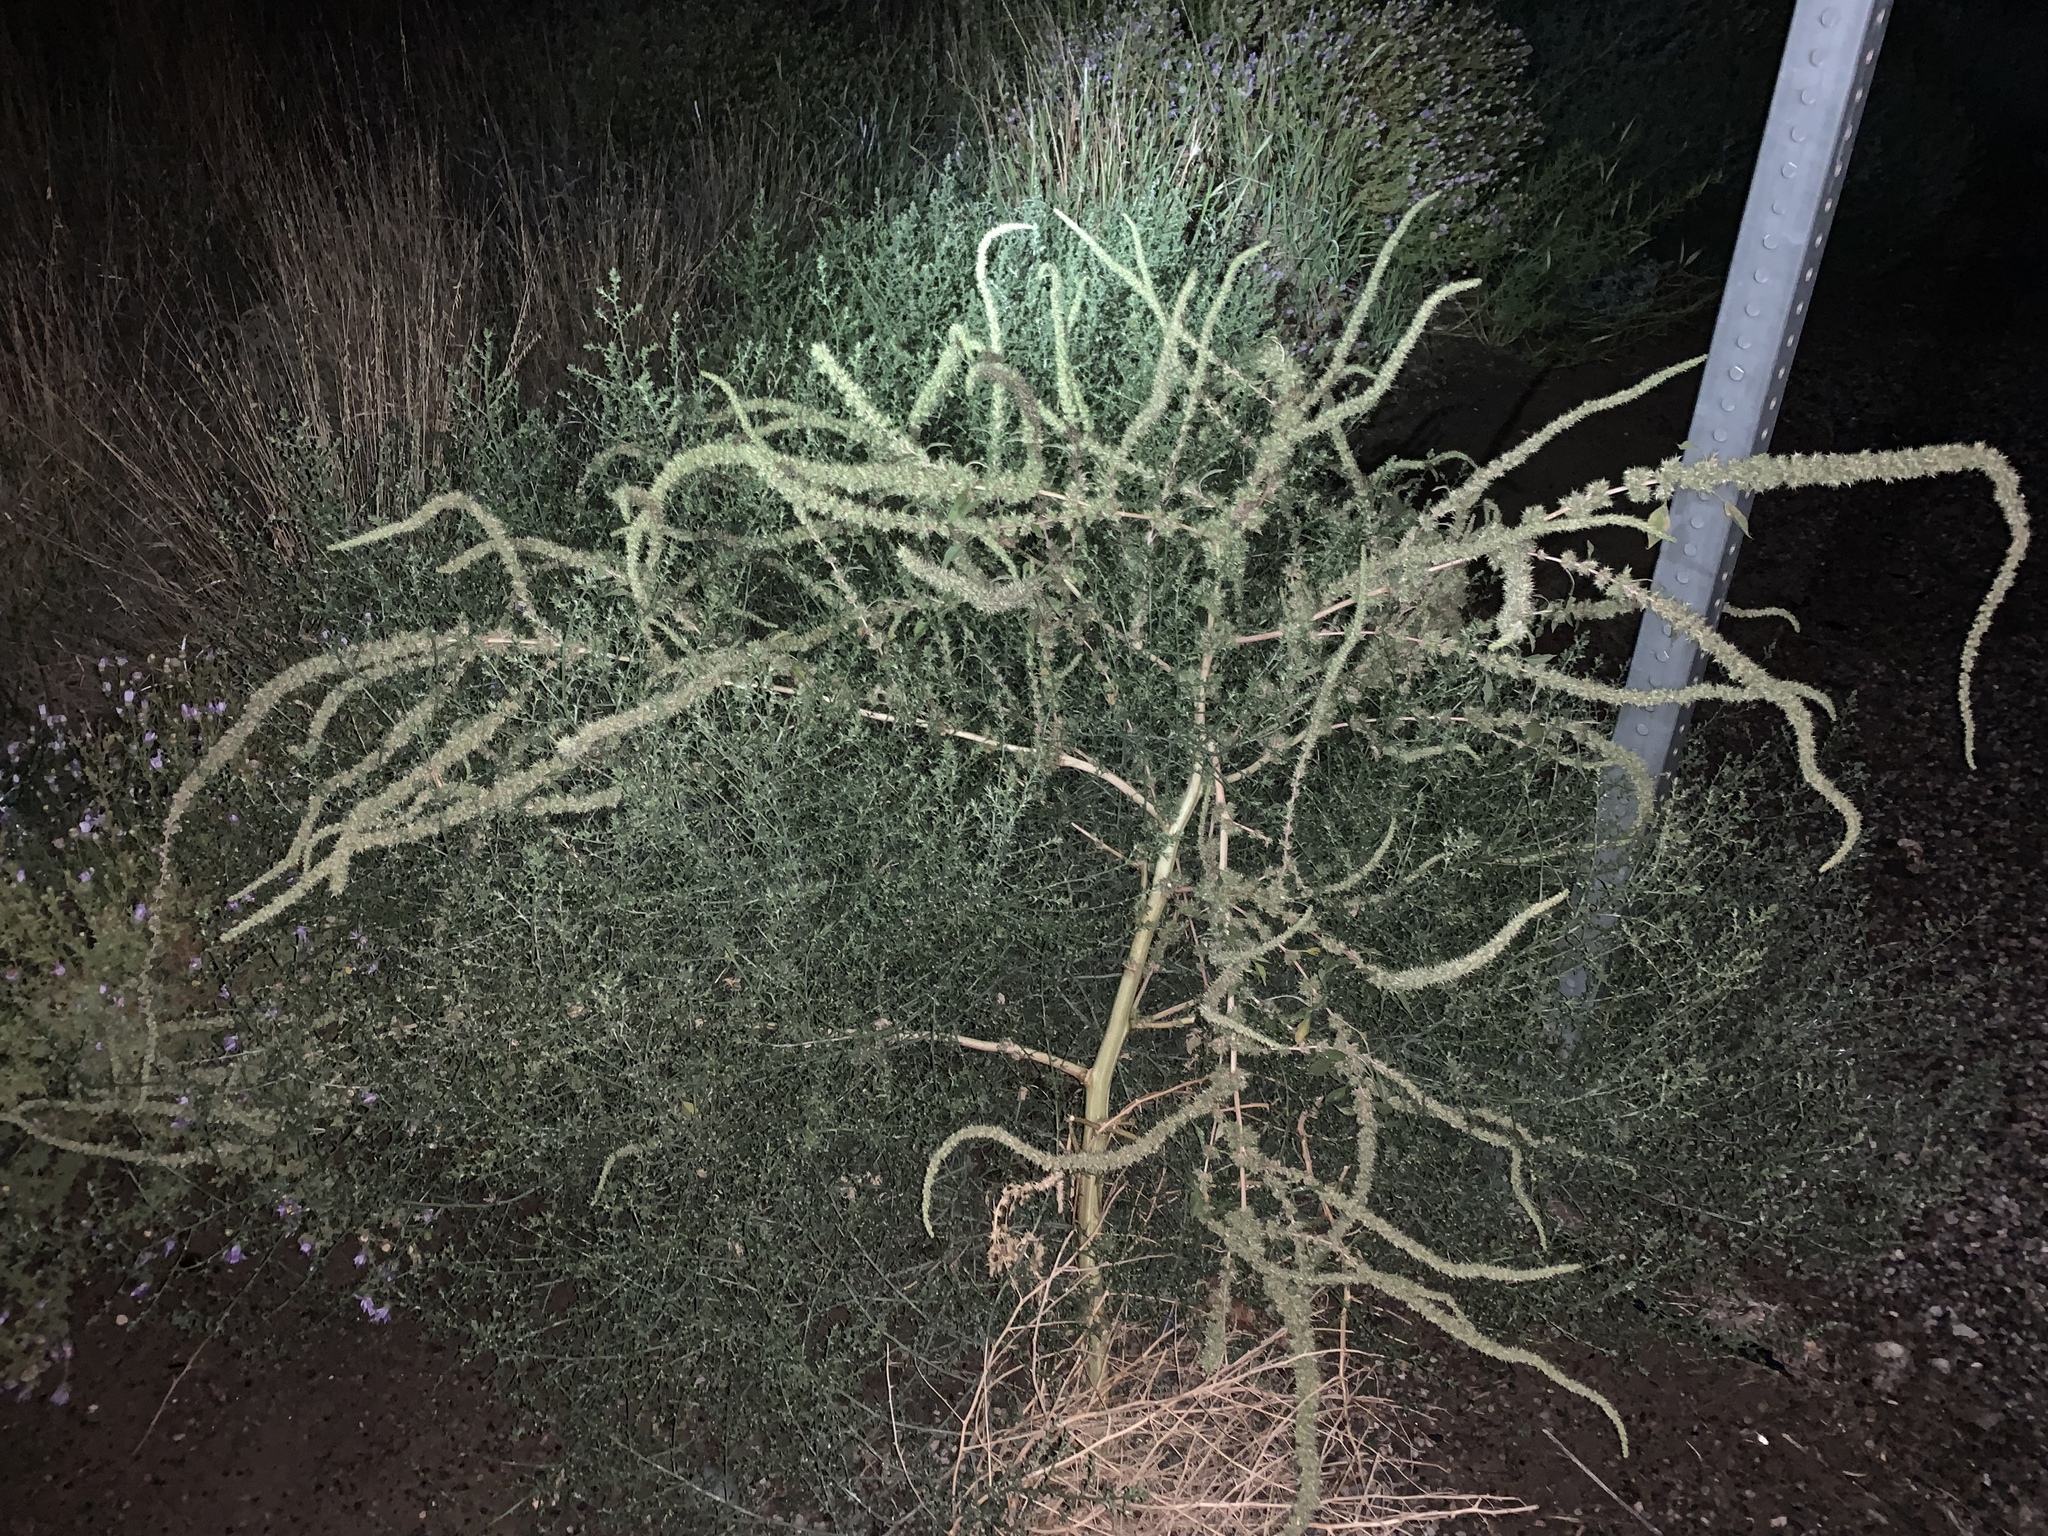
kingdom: Plantae
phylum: Tracheophyta
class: Magnoliopsida
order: Caryophyllales
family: Amaranthaceae
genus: Amaranthus
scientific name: Amaranthus palmeri
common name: Dioecious amaranth
